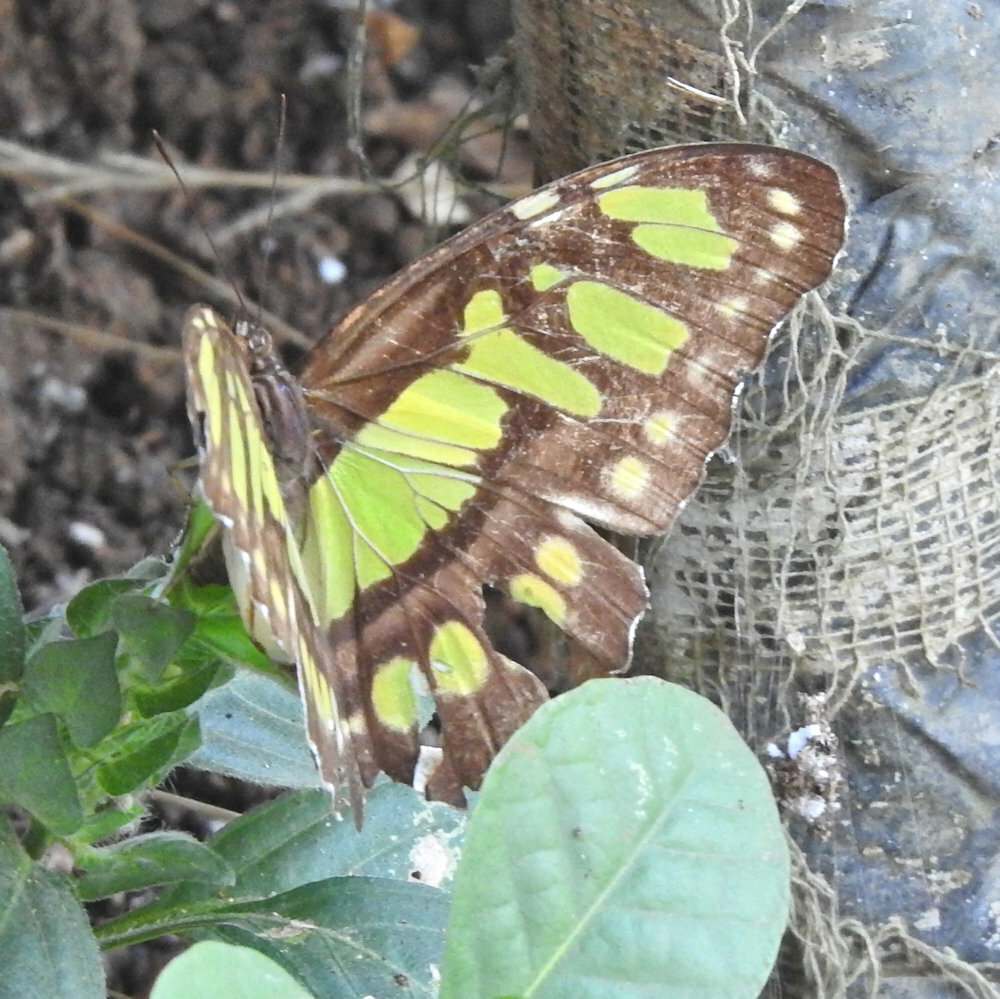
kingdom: Animalia
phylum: Arthropoda
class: Insecta
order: Lepidoptera
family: Nymphalidae
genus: Siproeta
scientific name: Siproeta stelenes
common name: Malachite
